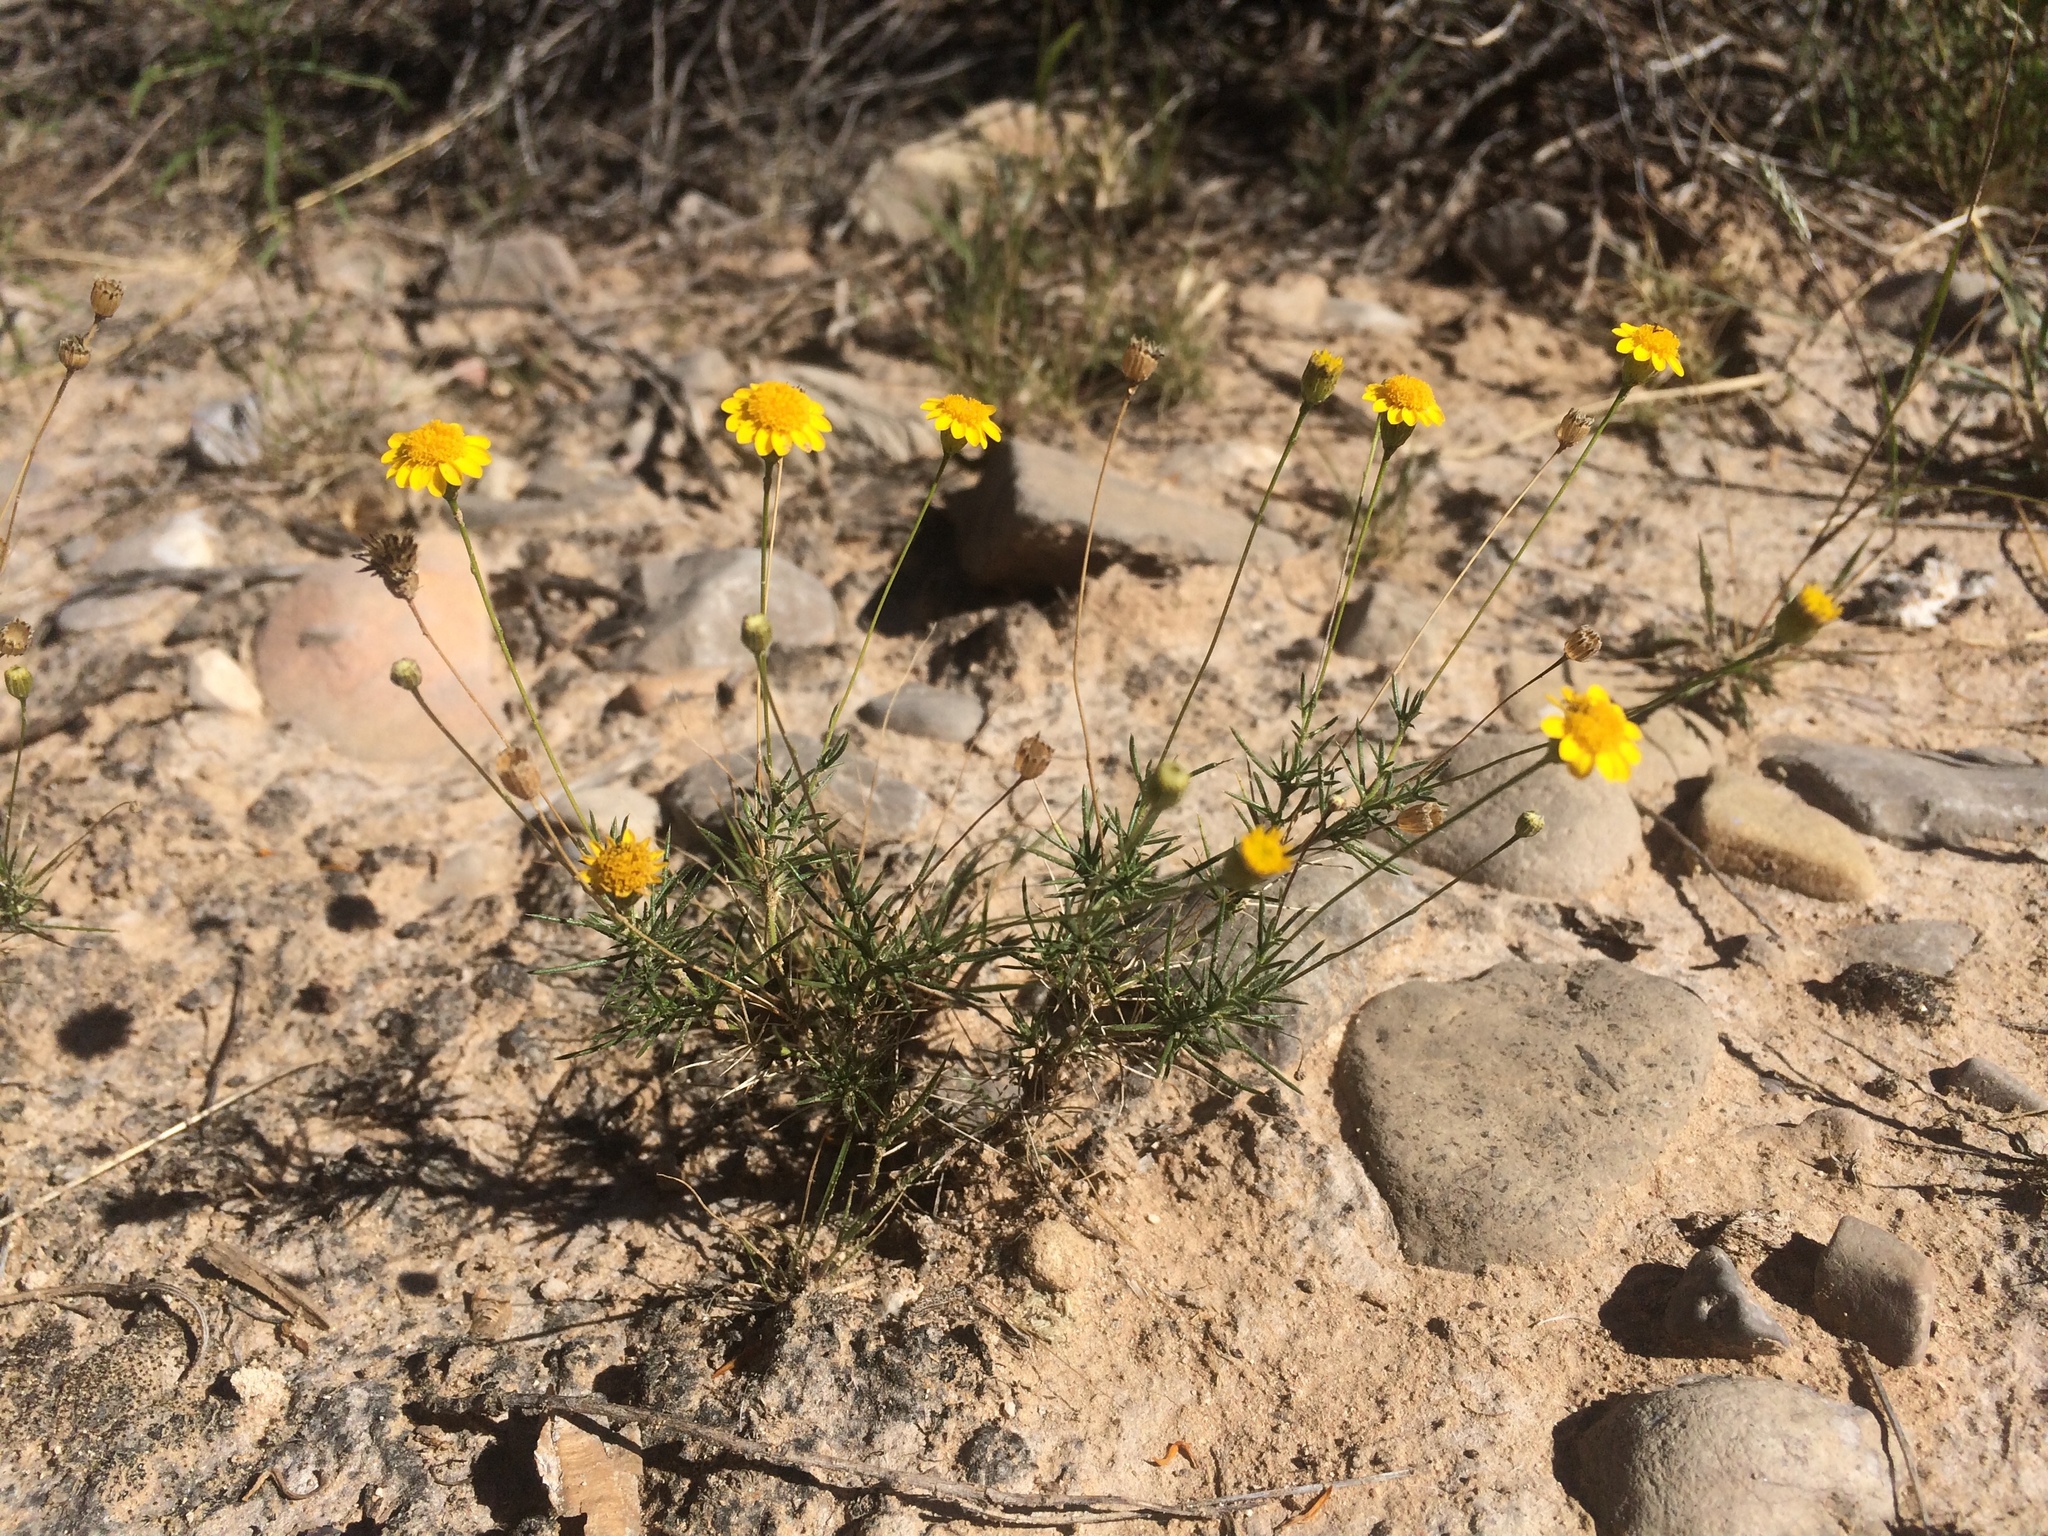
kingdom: Plantae
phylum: Tracheophyta
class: Magnoliopsida
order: Asterales
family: Asteraceae
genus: Thymophylla
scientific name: Thymophylla pentachaeta
